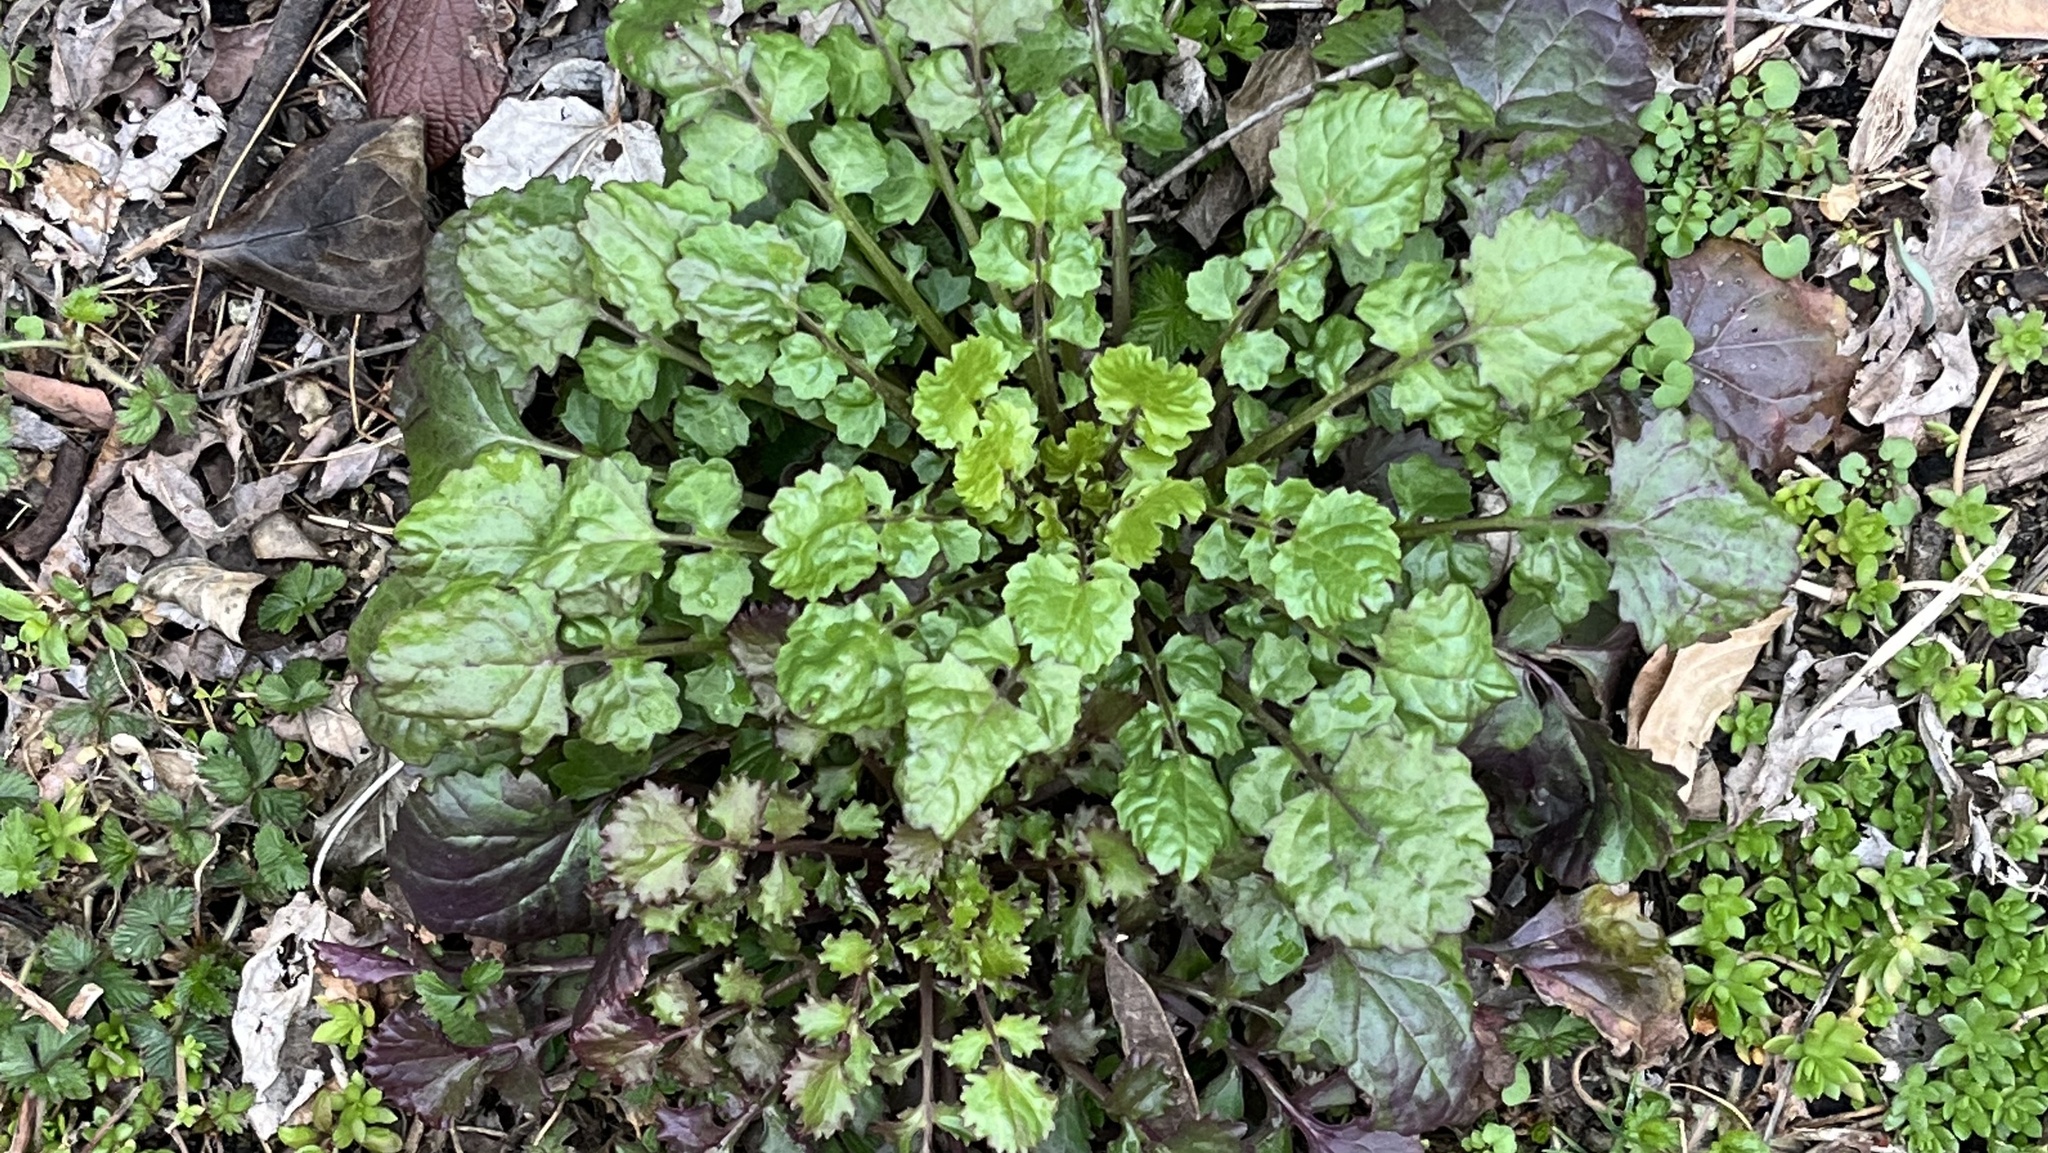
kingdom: Plantae
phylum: Tracheophyta
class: Magnoliopsida
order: Asterales
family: Asteraceae
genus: Packera
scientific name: Packera glabella
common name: Butterweed
